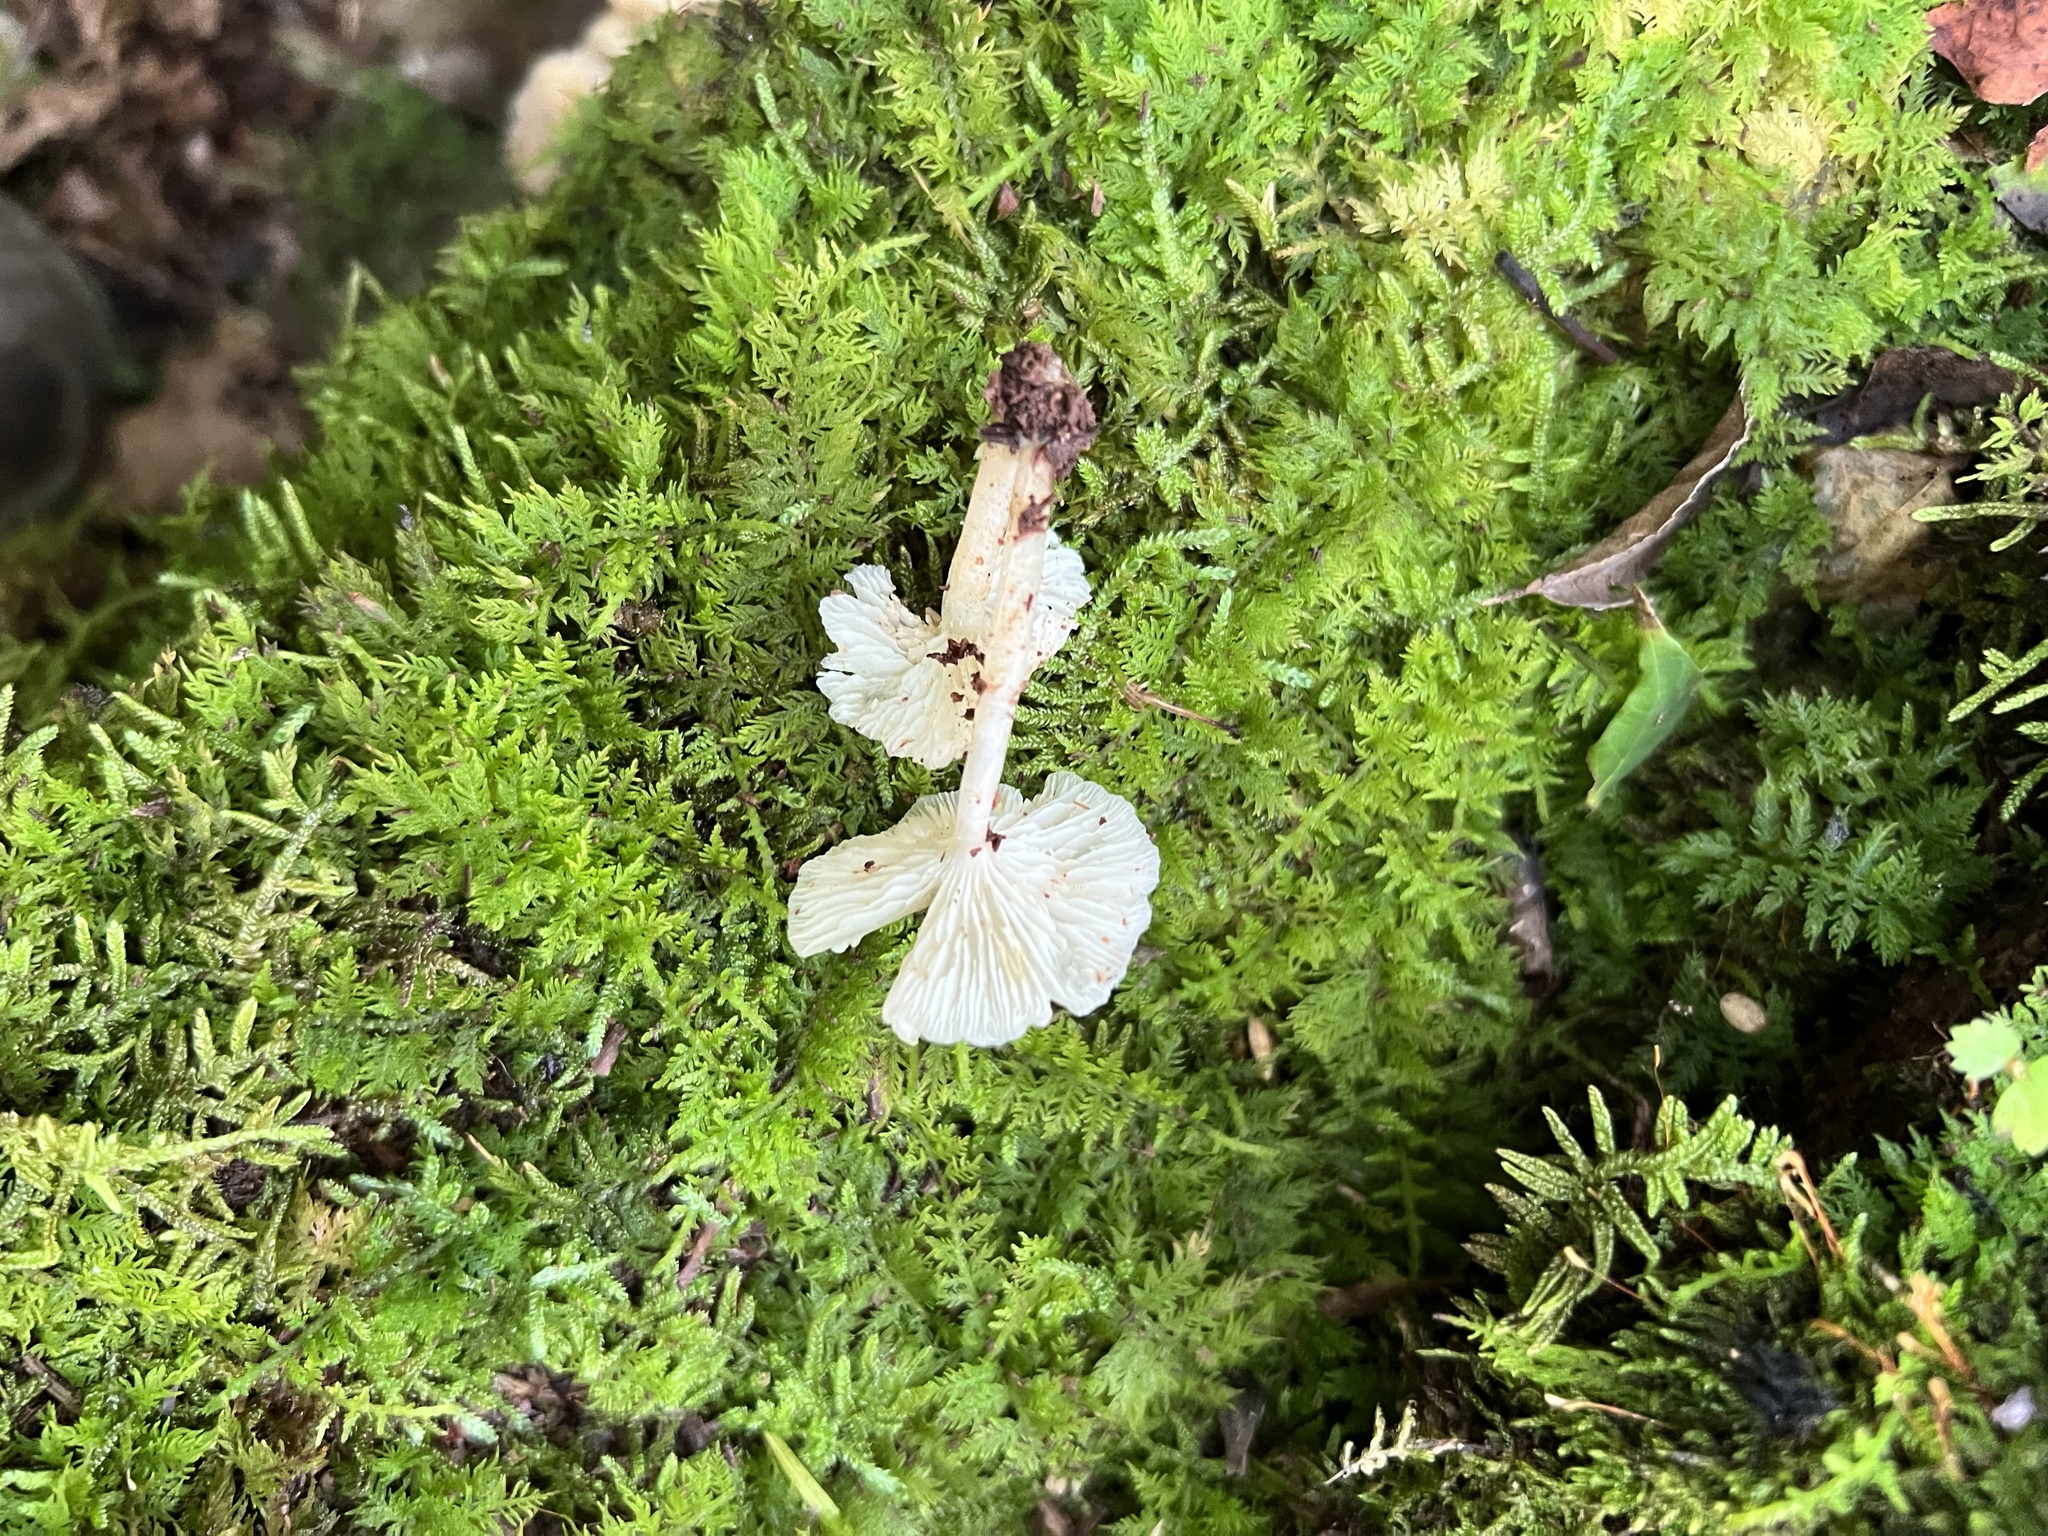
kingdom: Fungi
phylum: Basidiomycota
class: Agaricomycetes
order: Agaricales
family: Marasmiaceae
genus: Clitocybula
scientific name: Clitocybula oculus
